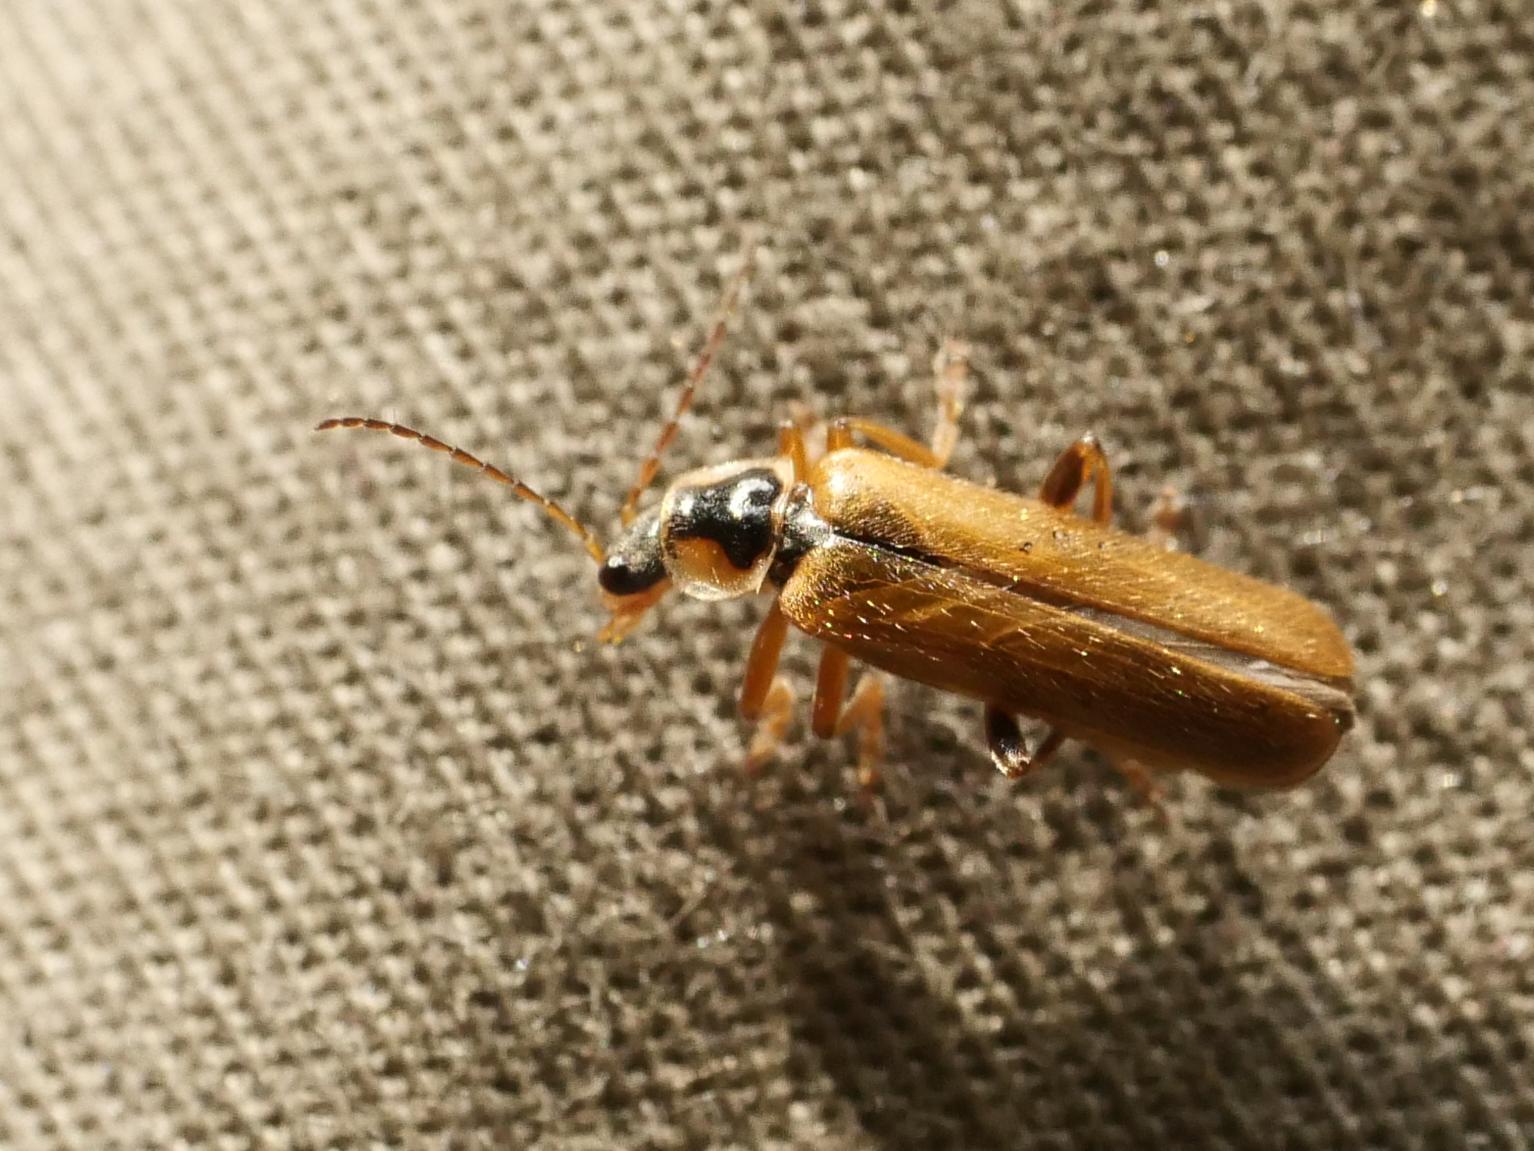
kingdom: Animalia
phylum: Arthropoda
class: Insecta
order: Coleoptera
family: Cantharidae
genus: Cantharis
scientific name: Cantharis decipiens
